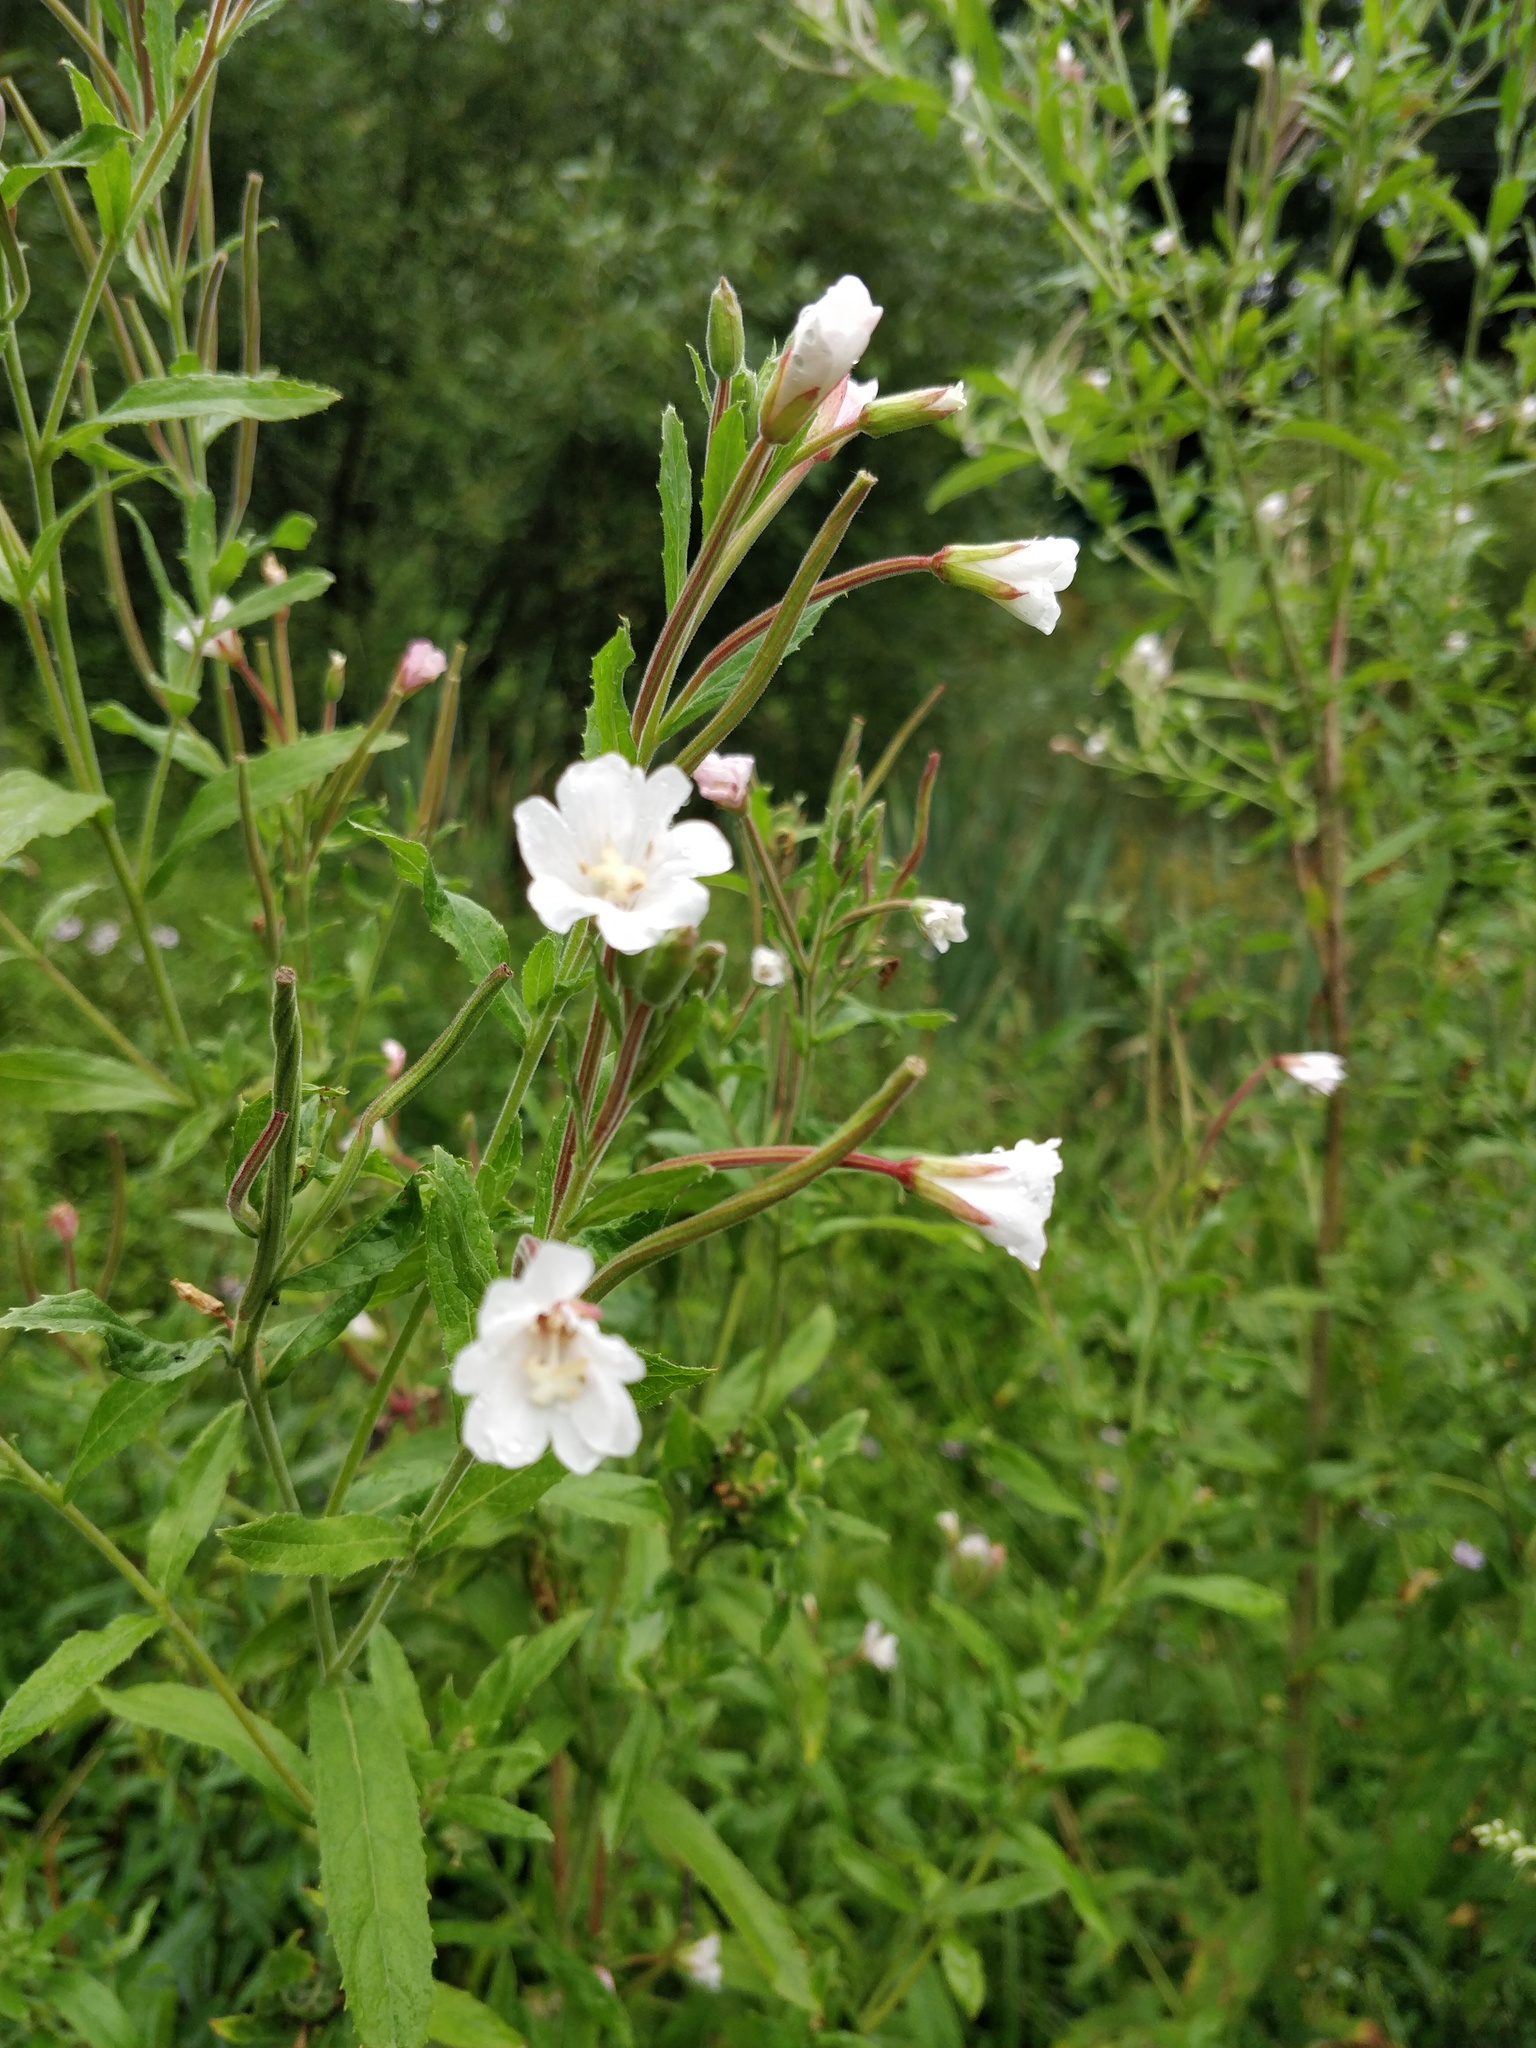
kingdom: Plantae
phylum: Tracheophyta
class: Magnoliopsida
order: Myrtales
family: Onagraceae
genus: Epilobium
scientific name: Epilobium hirsutum
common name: Great willowherb
